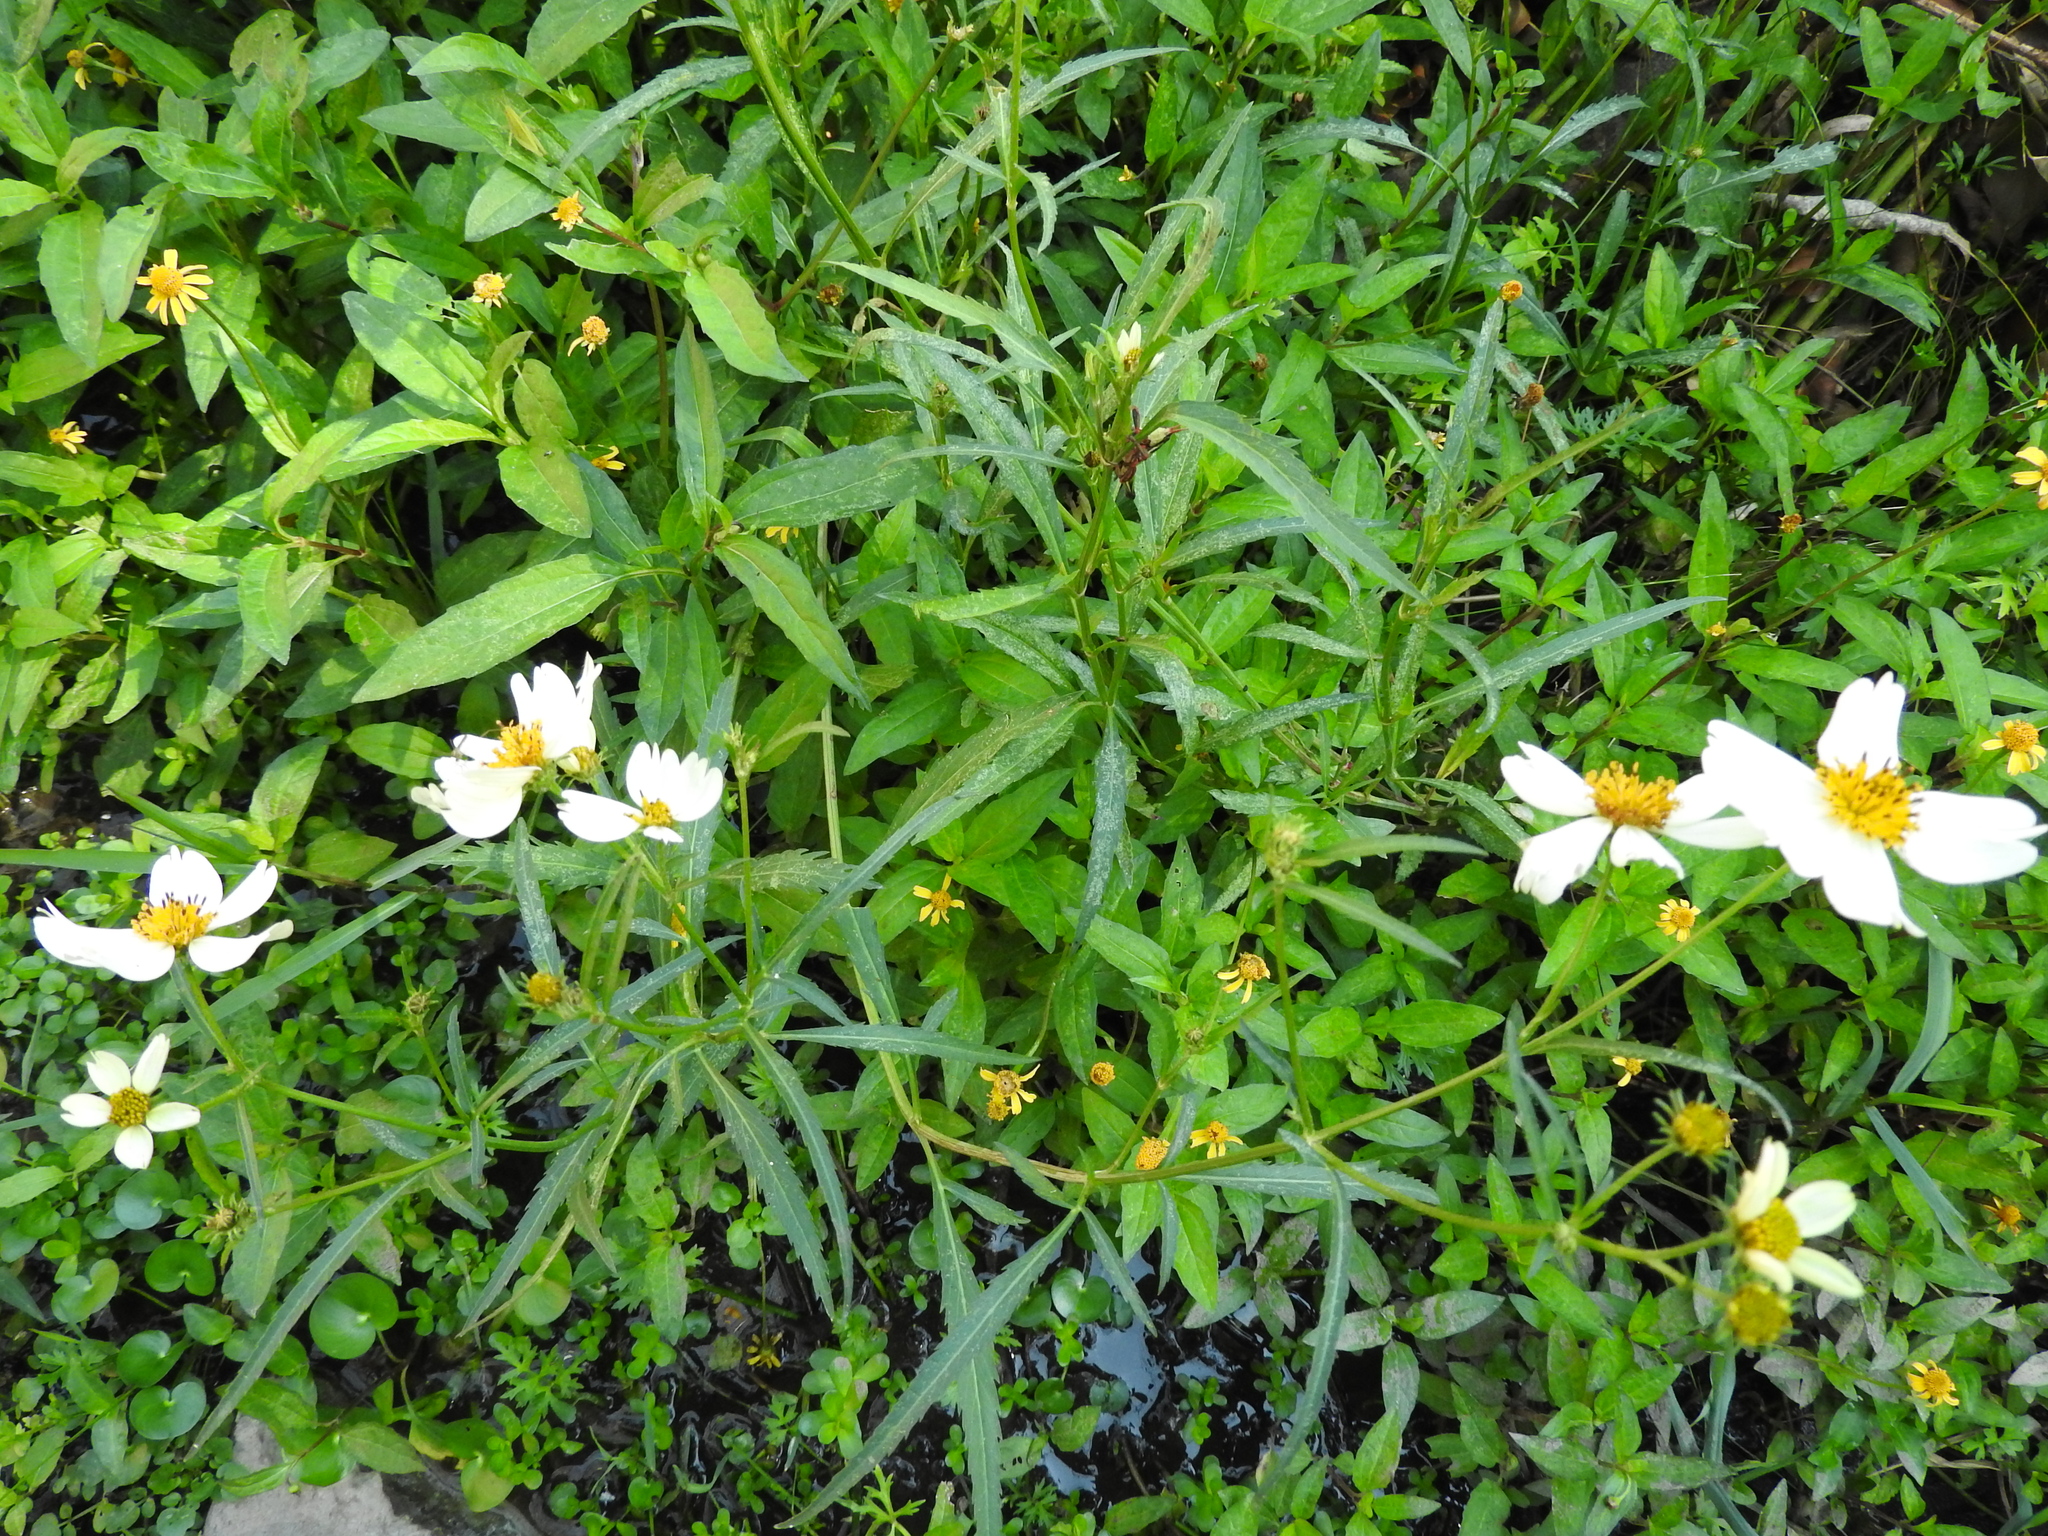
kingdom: Plantae
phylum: Tracheophyta
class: Magnoliopsida
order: Asterales
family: Asteraceae
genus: Bidens
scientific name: Bidens odorata
